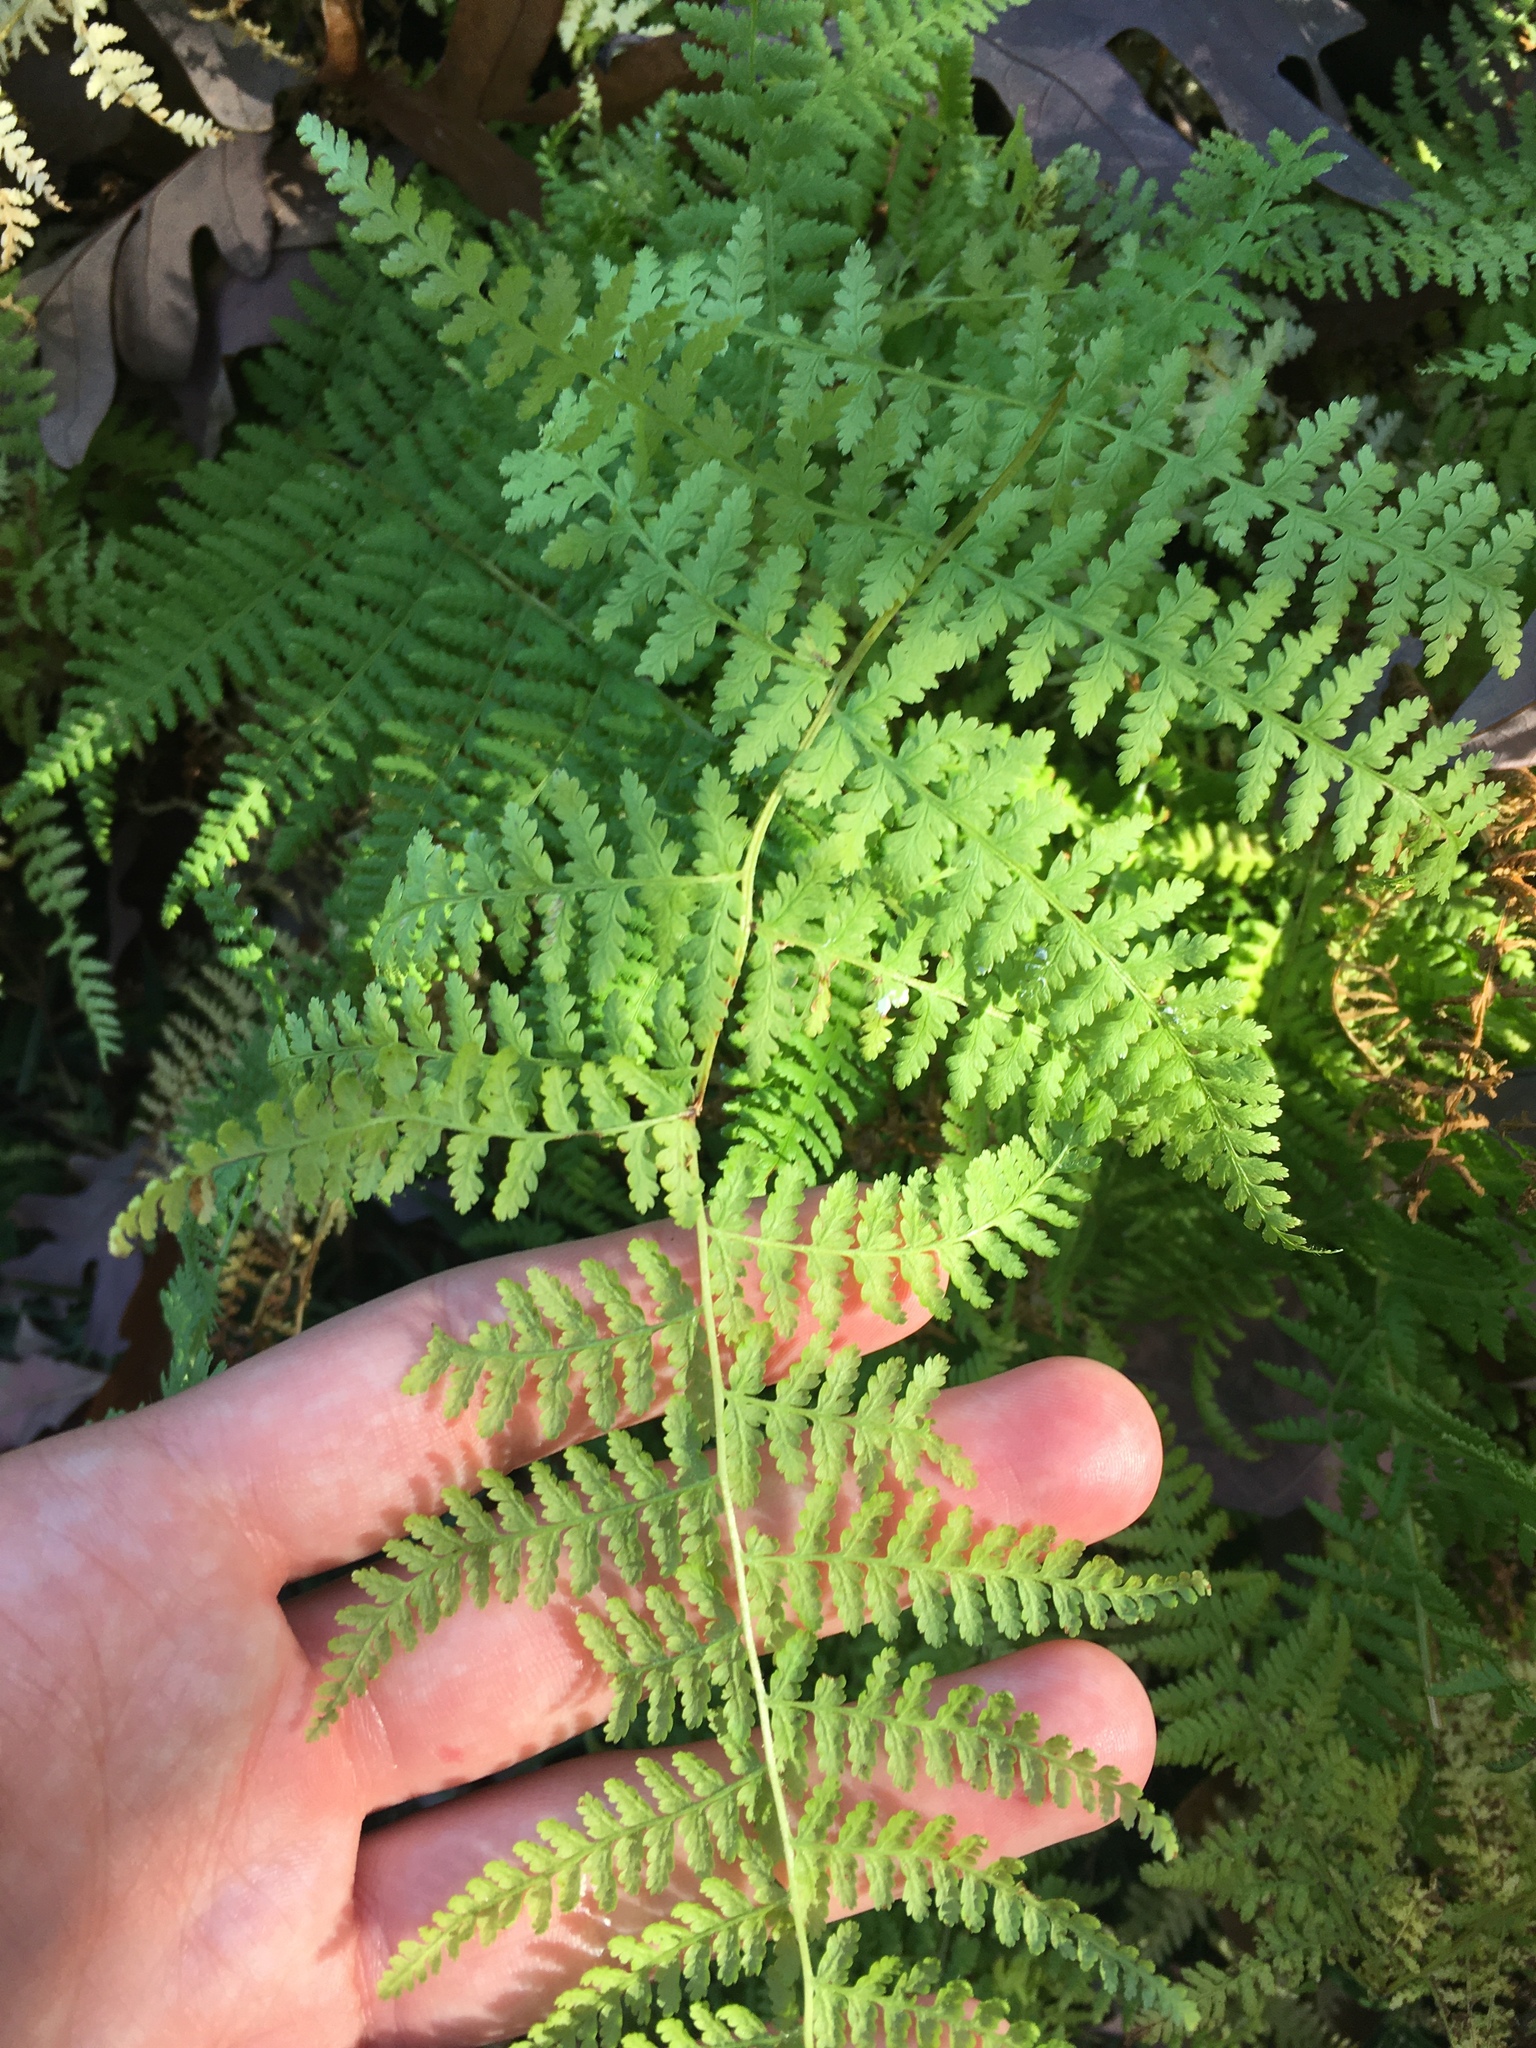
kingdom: Plantae
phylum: Tracheophyta
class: Polypodiopsida
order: Polypodiales
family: Dennstaedtiaceae
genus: Sitobolium
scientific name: Sitobolium punctilobum
